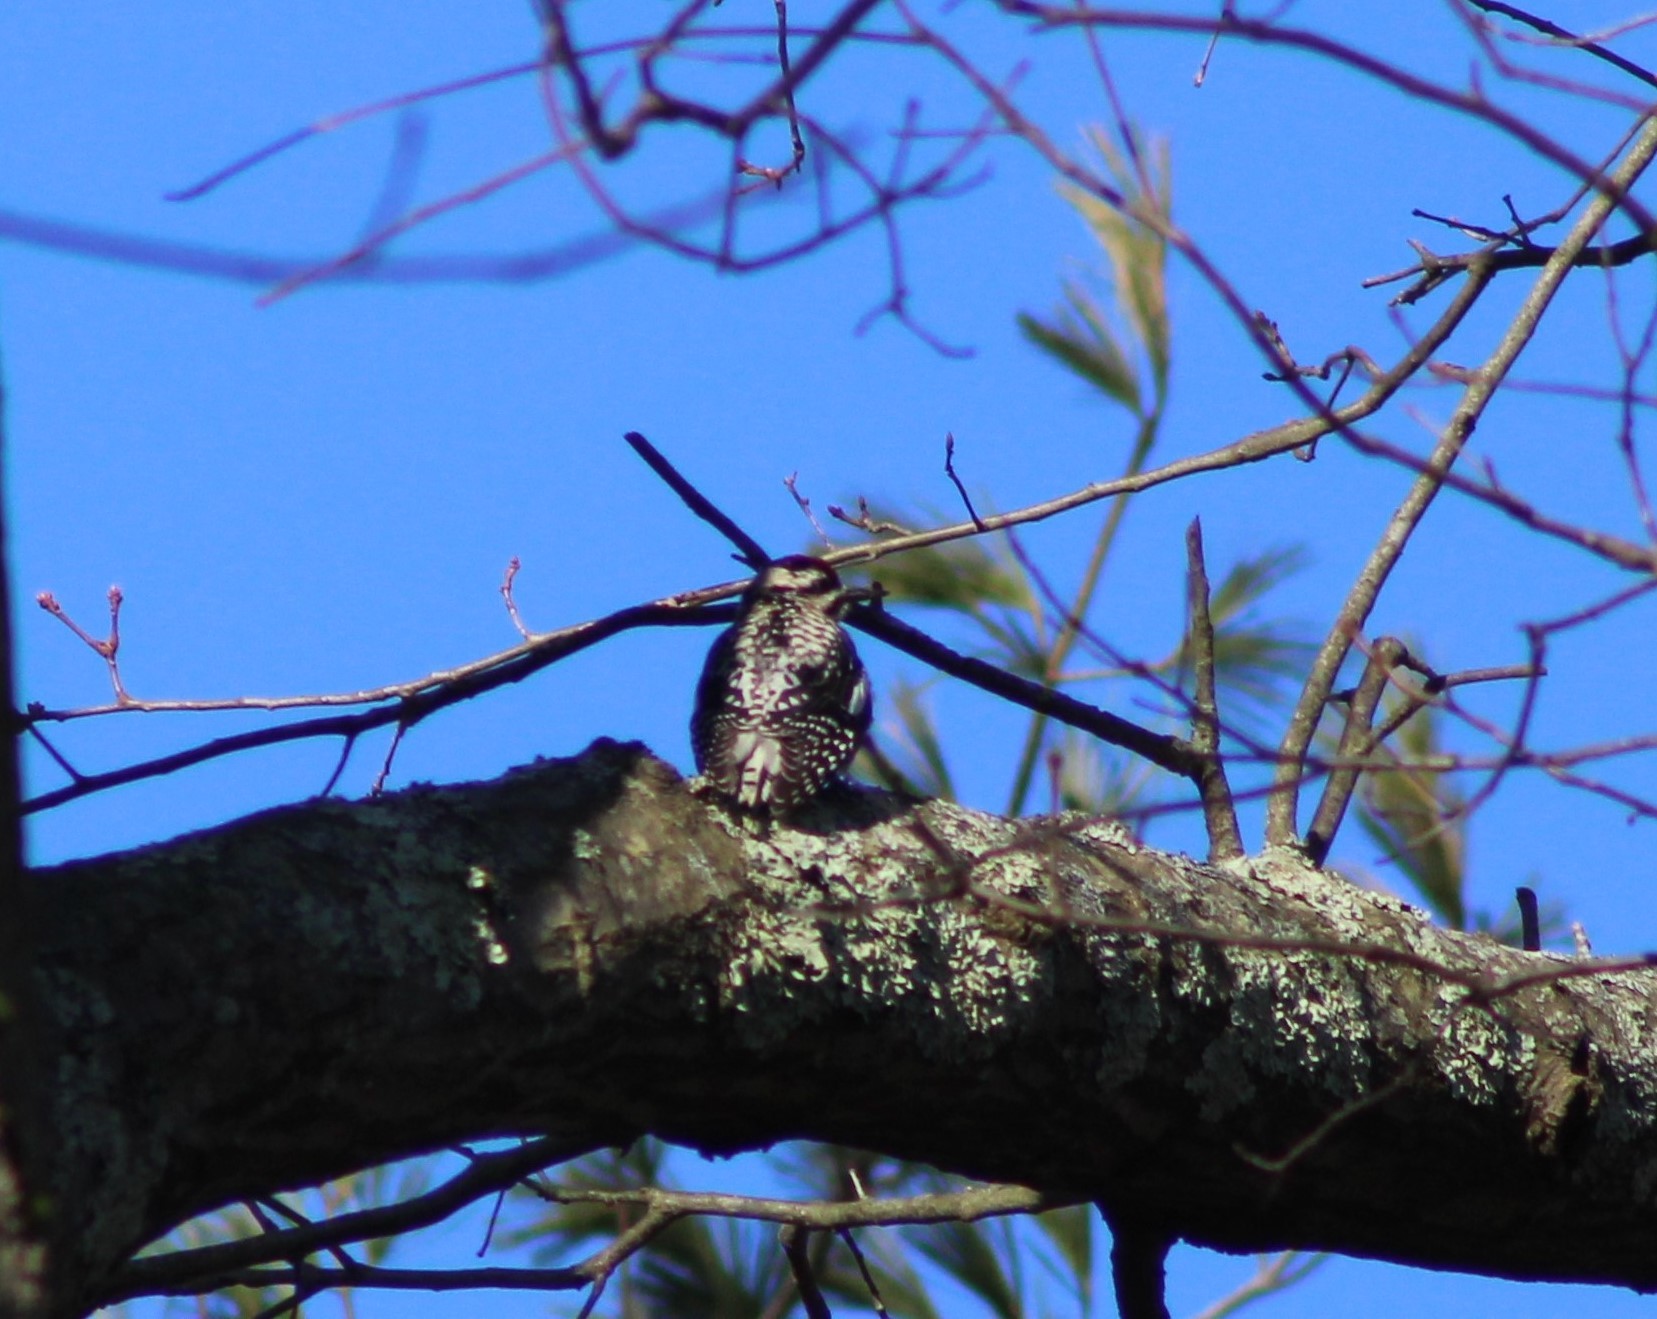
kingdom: Animalia
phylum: Chordata
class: Aves
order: Piciformes
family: Picidae
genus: Sphyrapicus
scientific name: Sphyrapicus varius
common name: Yellow-bellied sapsucker
